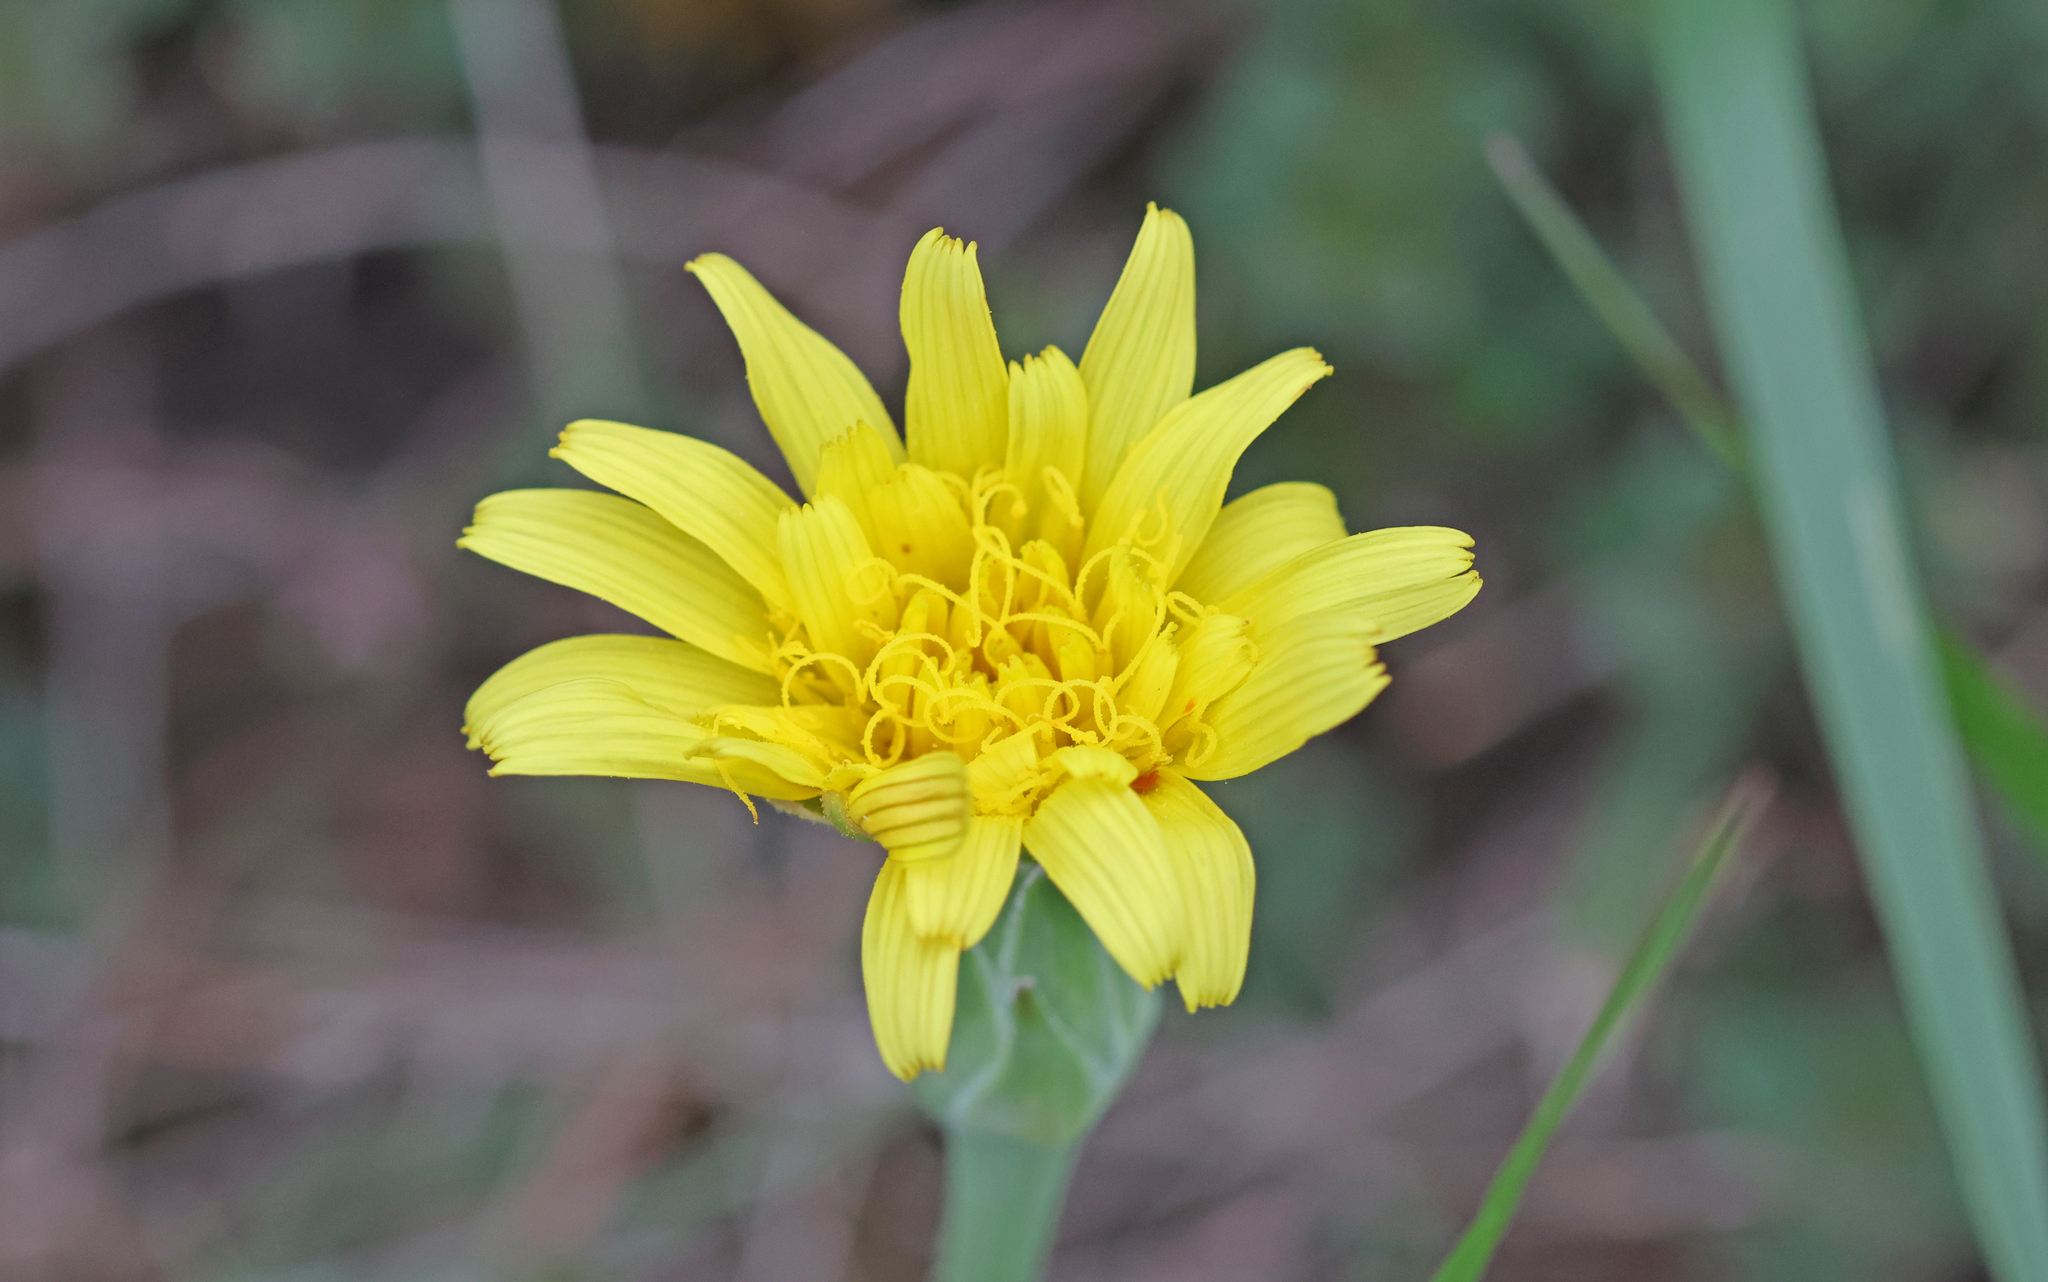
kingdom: Plantae
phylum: Tracheophyta
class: Magnoliopsida
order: Asterales
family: Asteraceae
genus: Takhtajaniantha
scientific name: Takhtajaniantha austriaca
